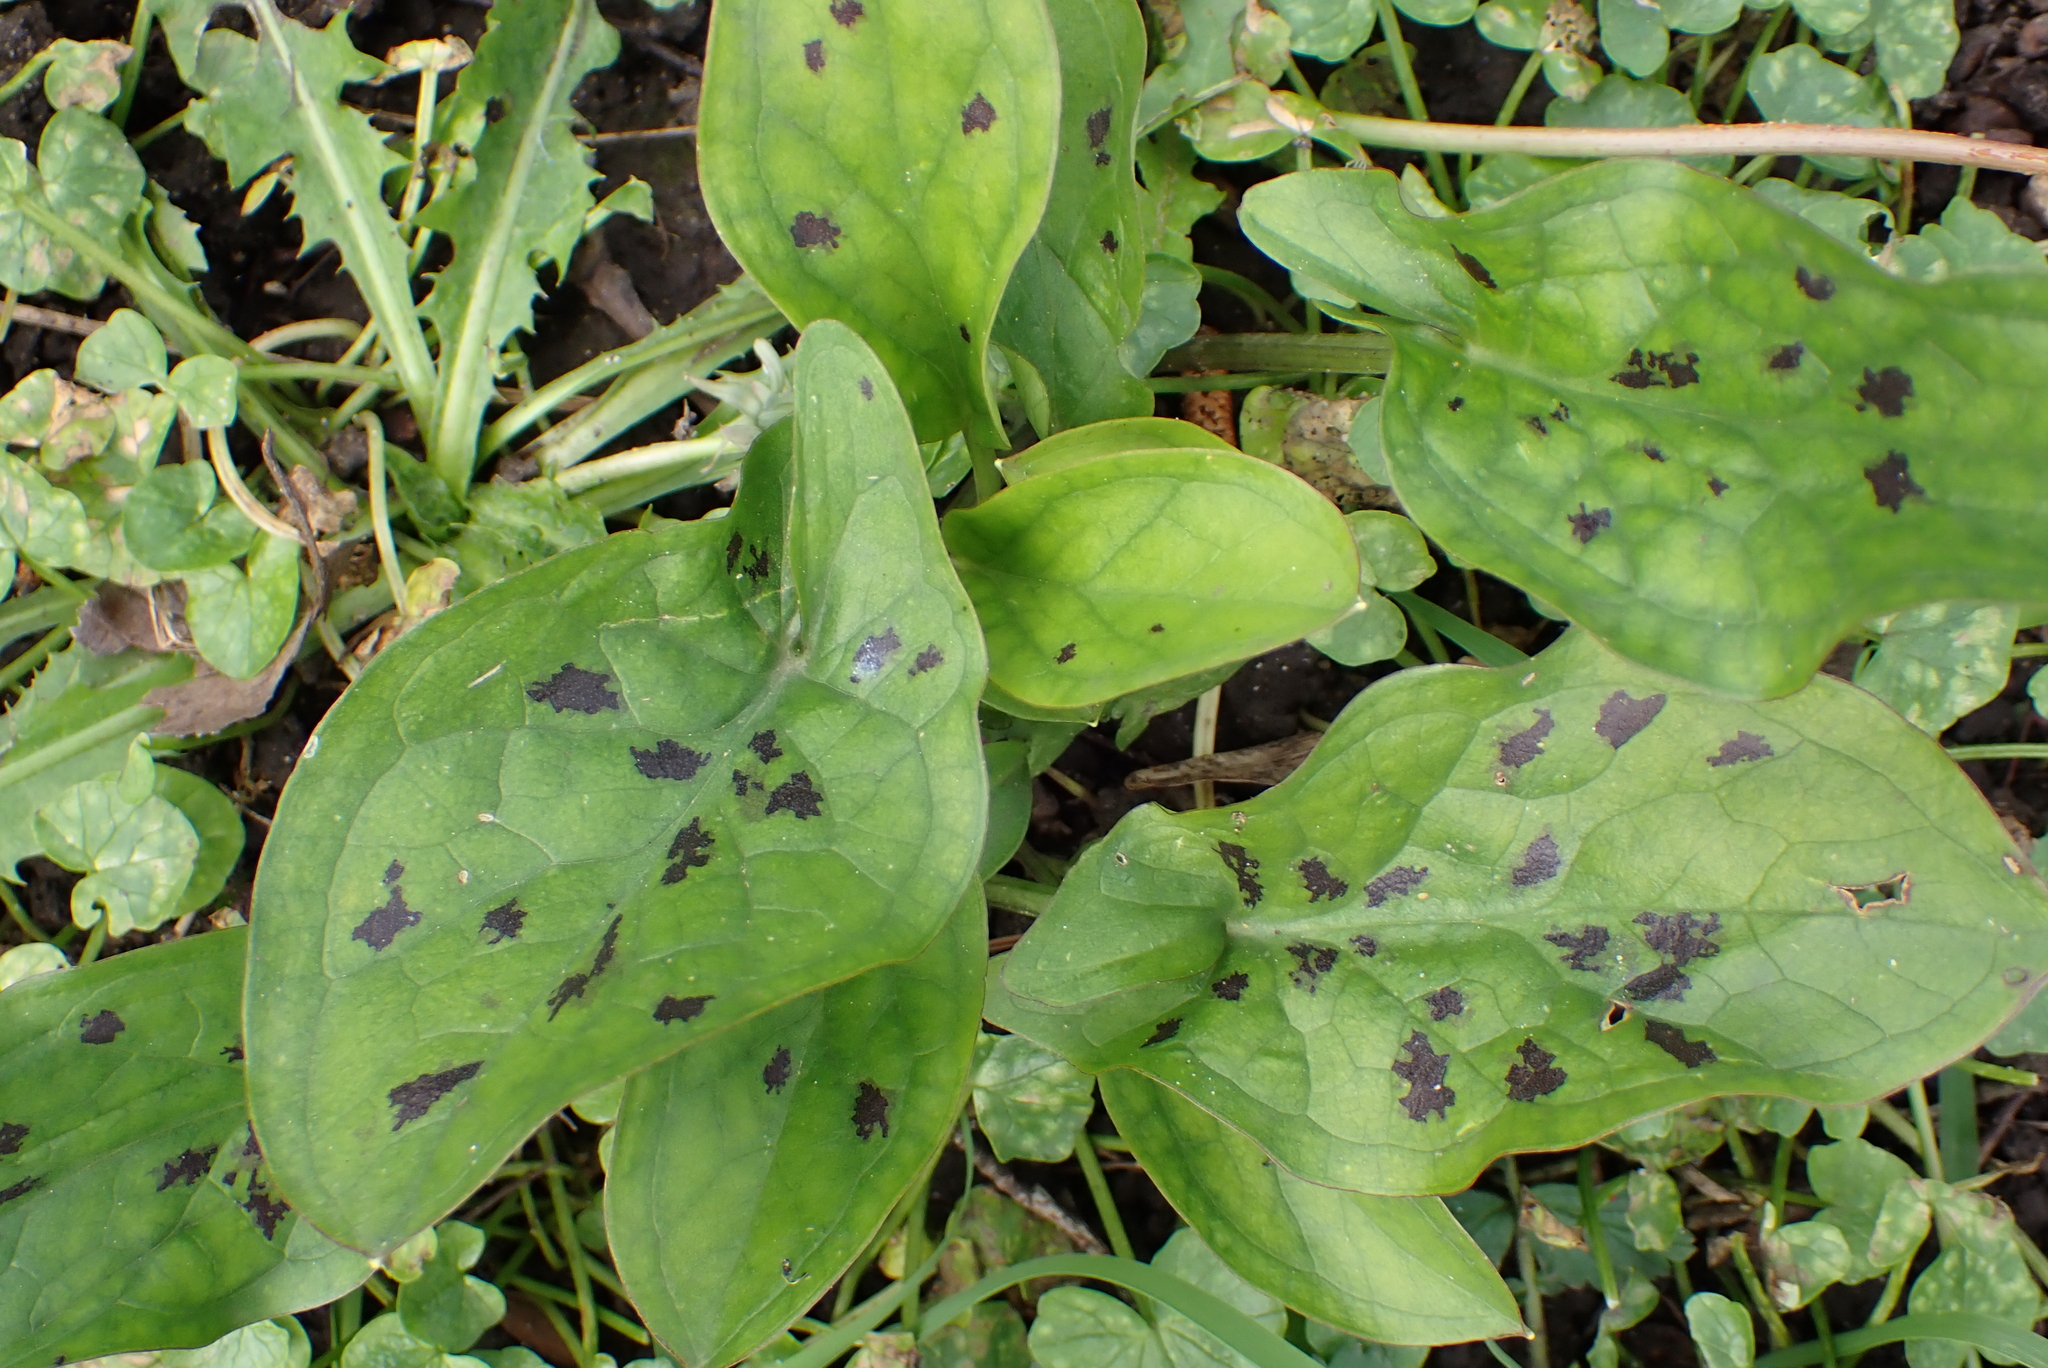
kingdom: Plantae
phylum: Tracheophyta
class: Liliopsida
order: Alismatales
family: Araceae
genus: Arum
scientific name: Arum maculatum
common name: Lords-and-ladies
